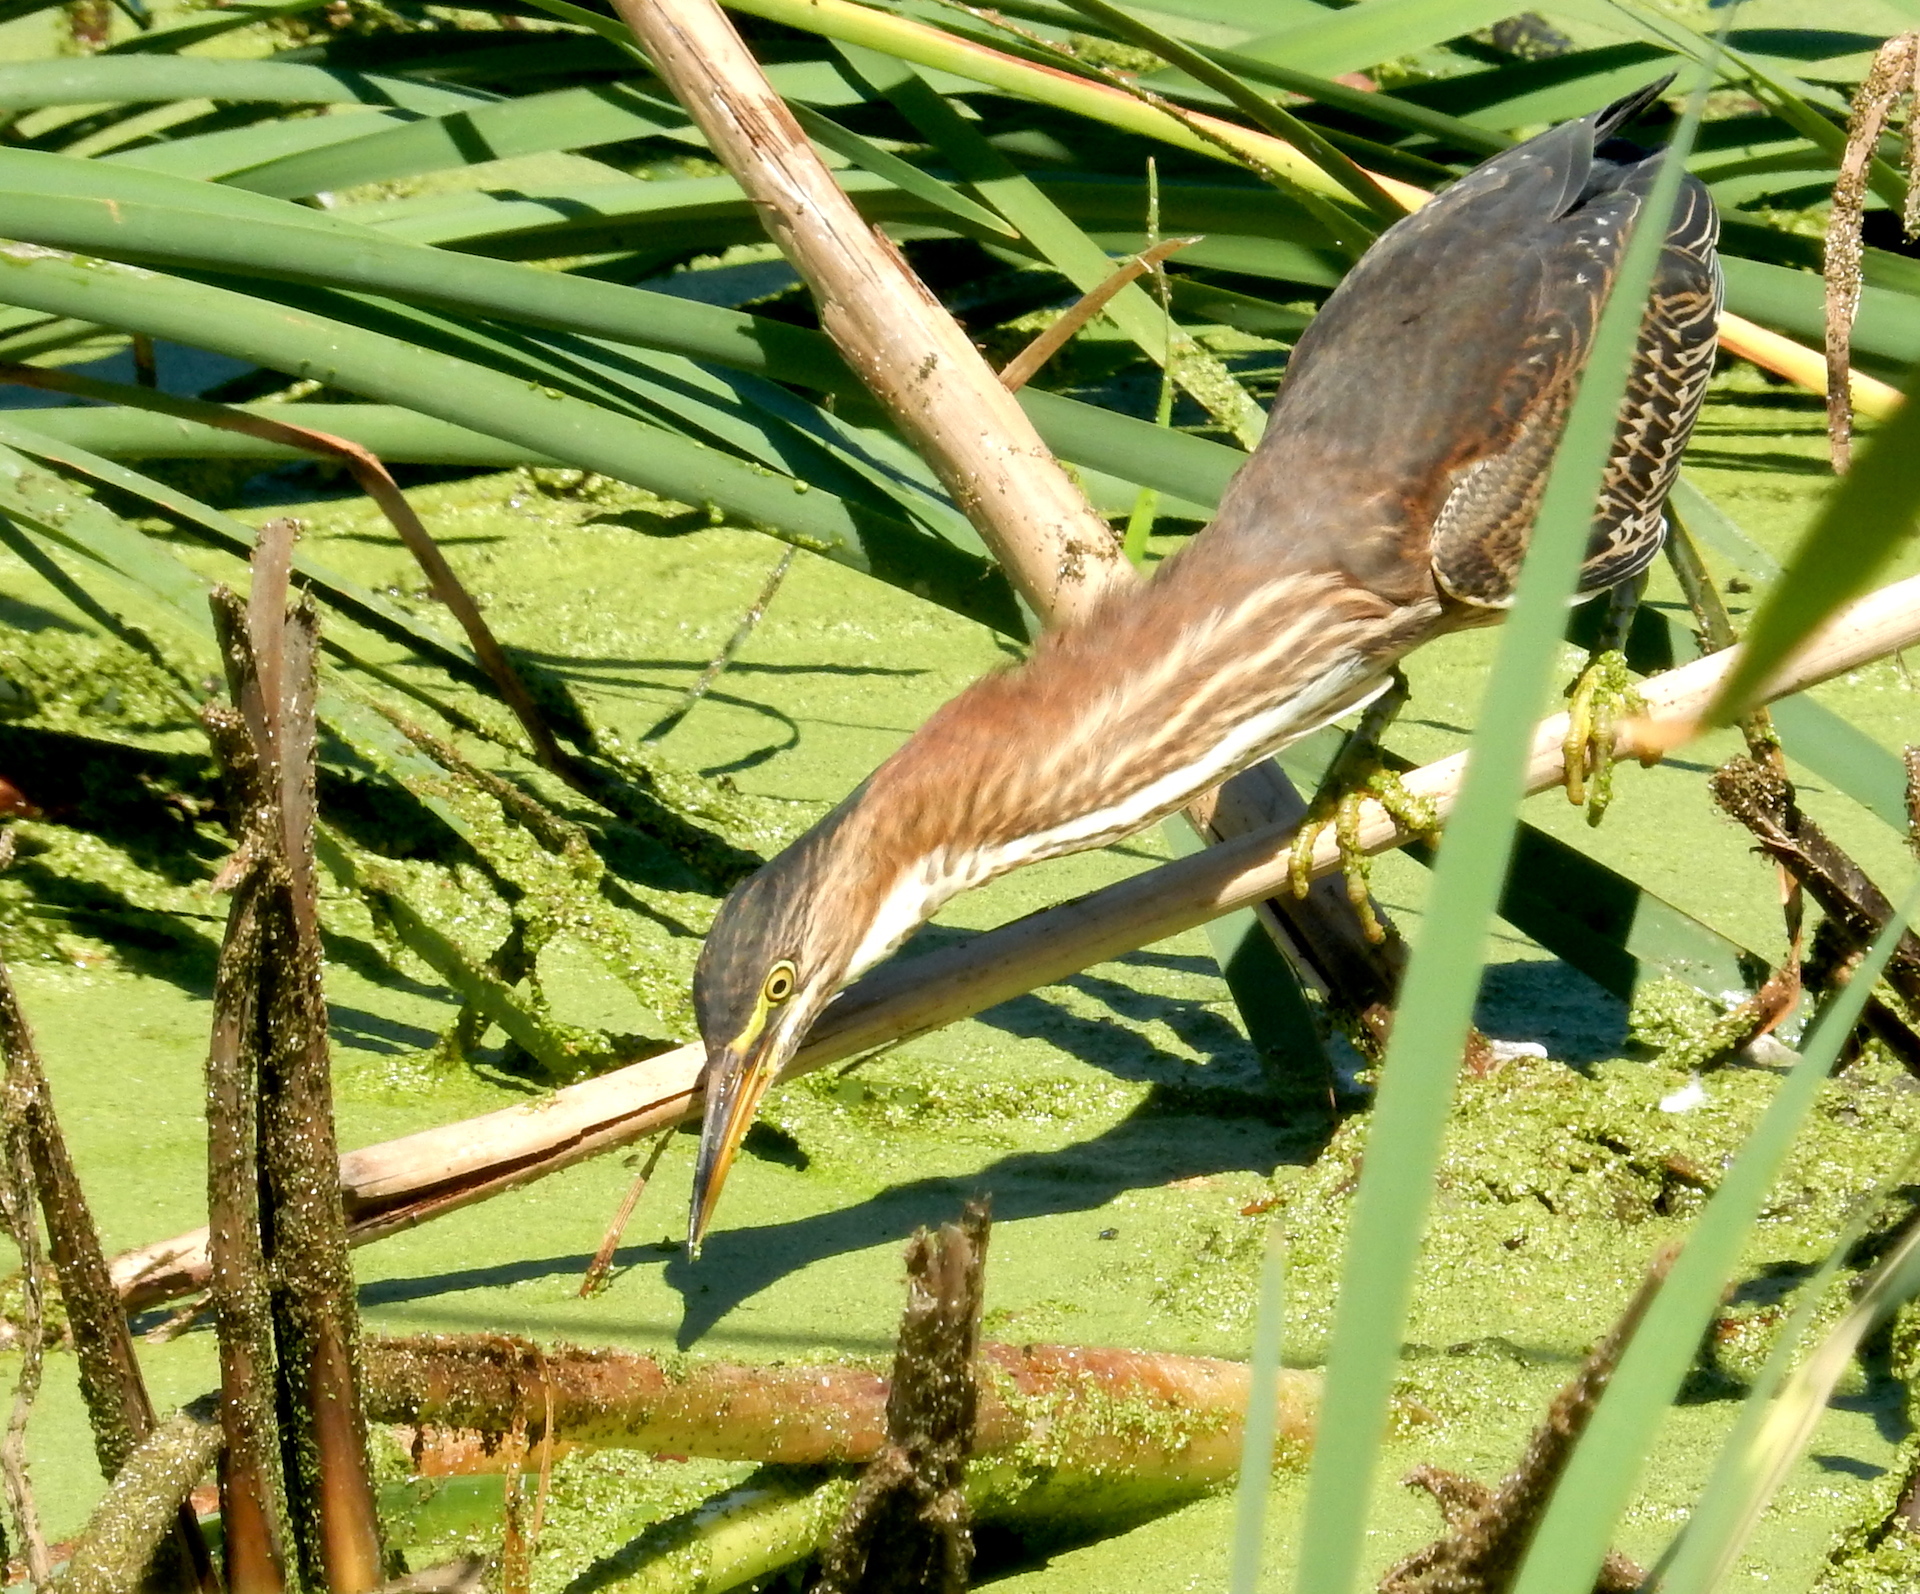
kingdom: Animalia
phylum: Chordata
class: Aves
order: Pelecaniformes
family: Ardeidae
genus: Butorides
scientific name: Butorides virescens
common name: Green heron
